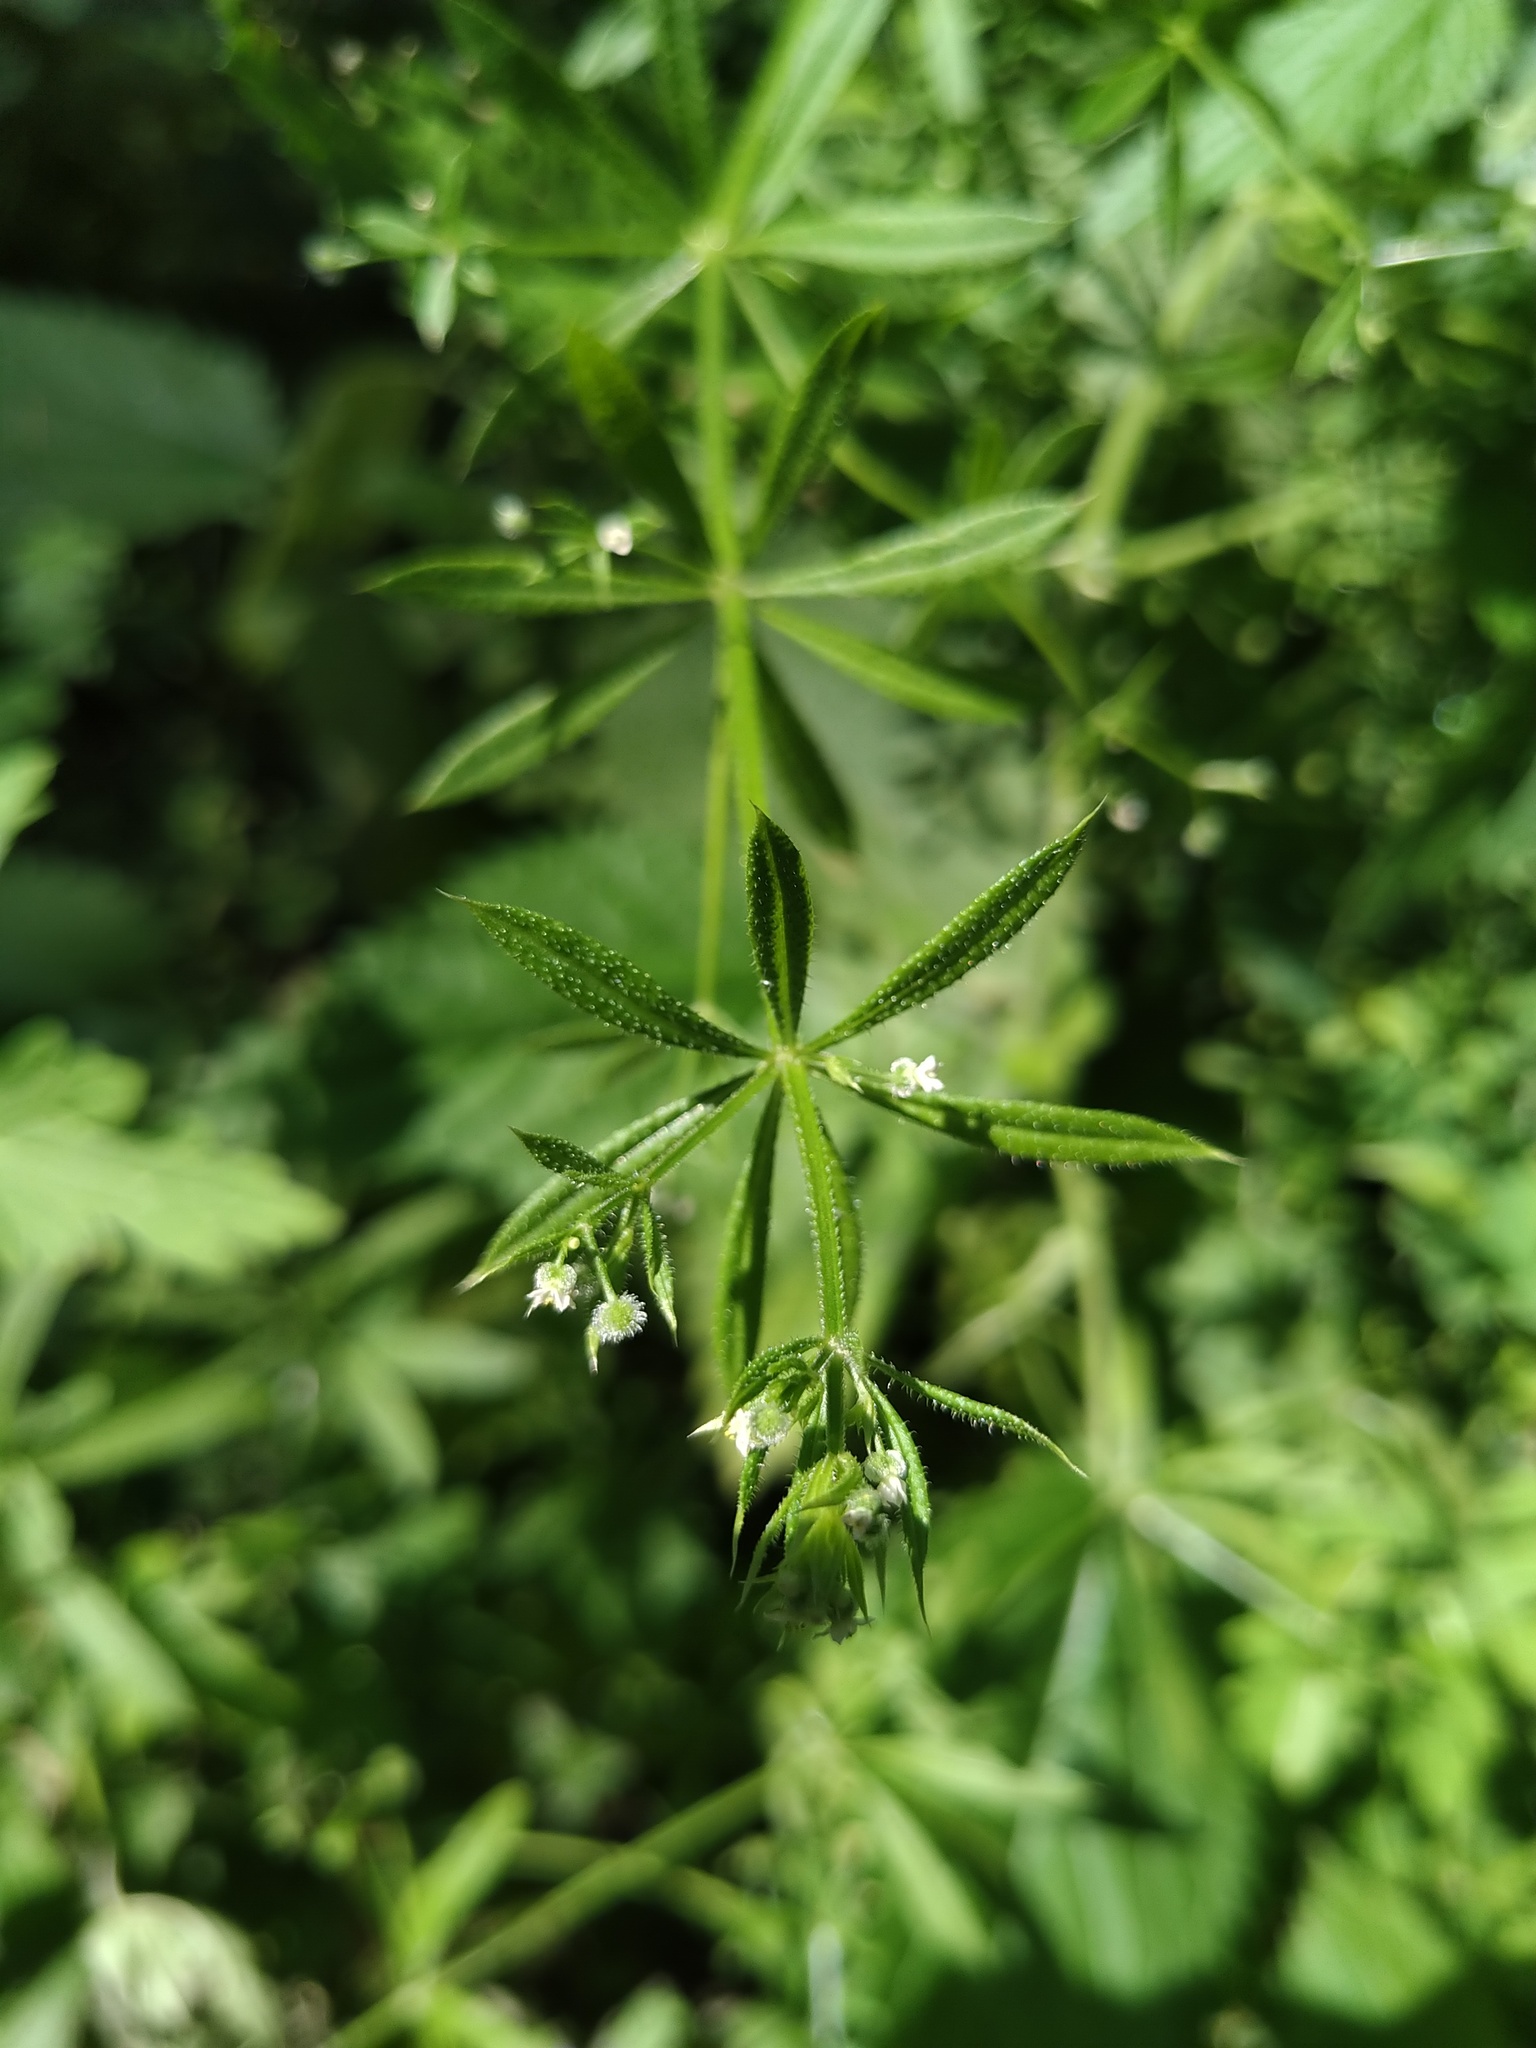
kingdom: Plantae
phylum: Tracheophyta
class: Magnoliopsida
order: Gentianales
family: Rubiaceae
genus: Galium
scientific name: Galium aparine
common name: Cleavers
